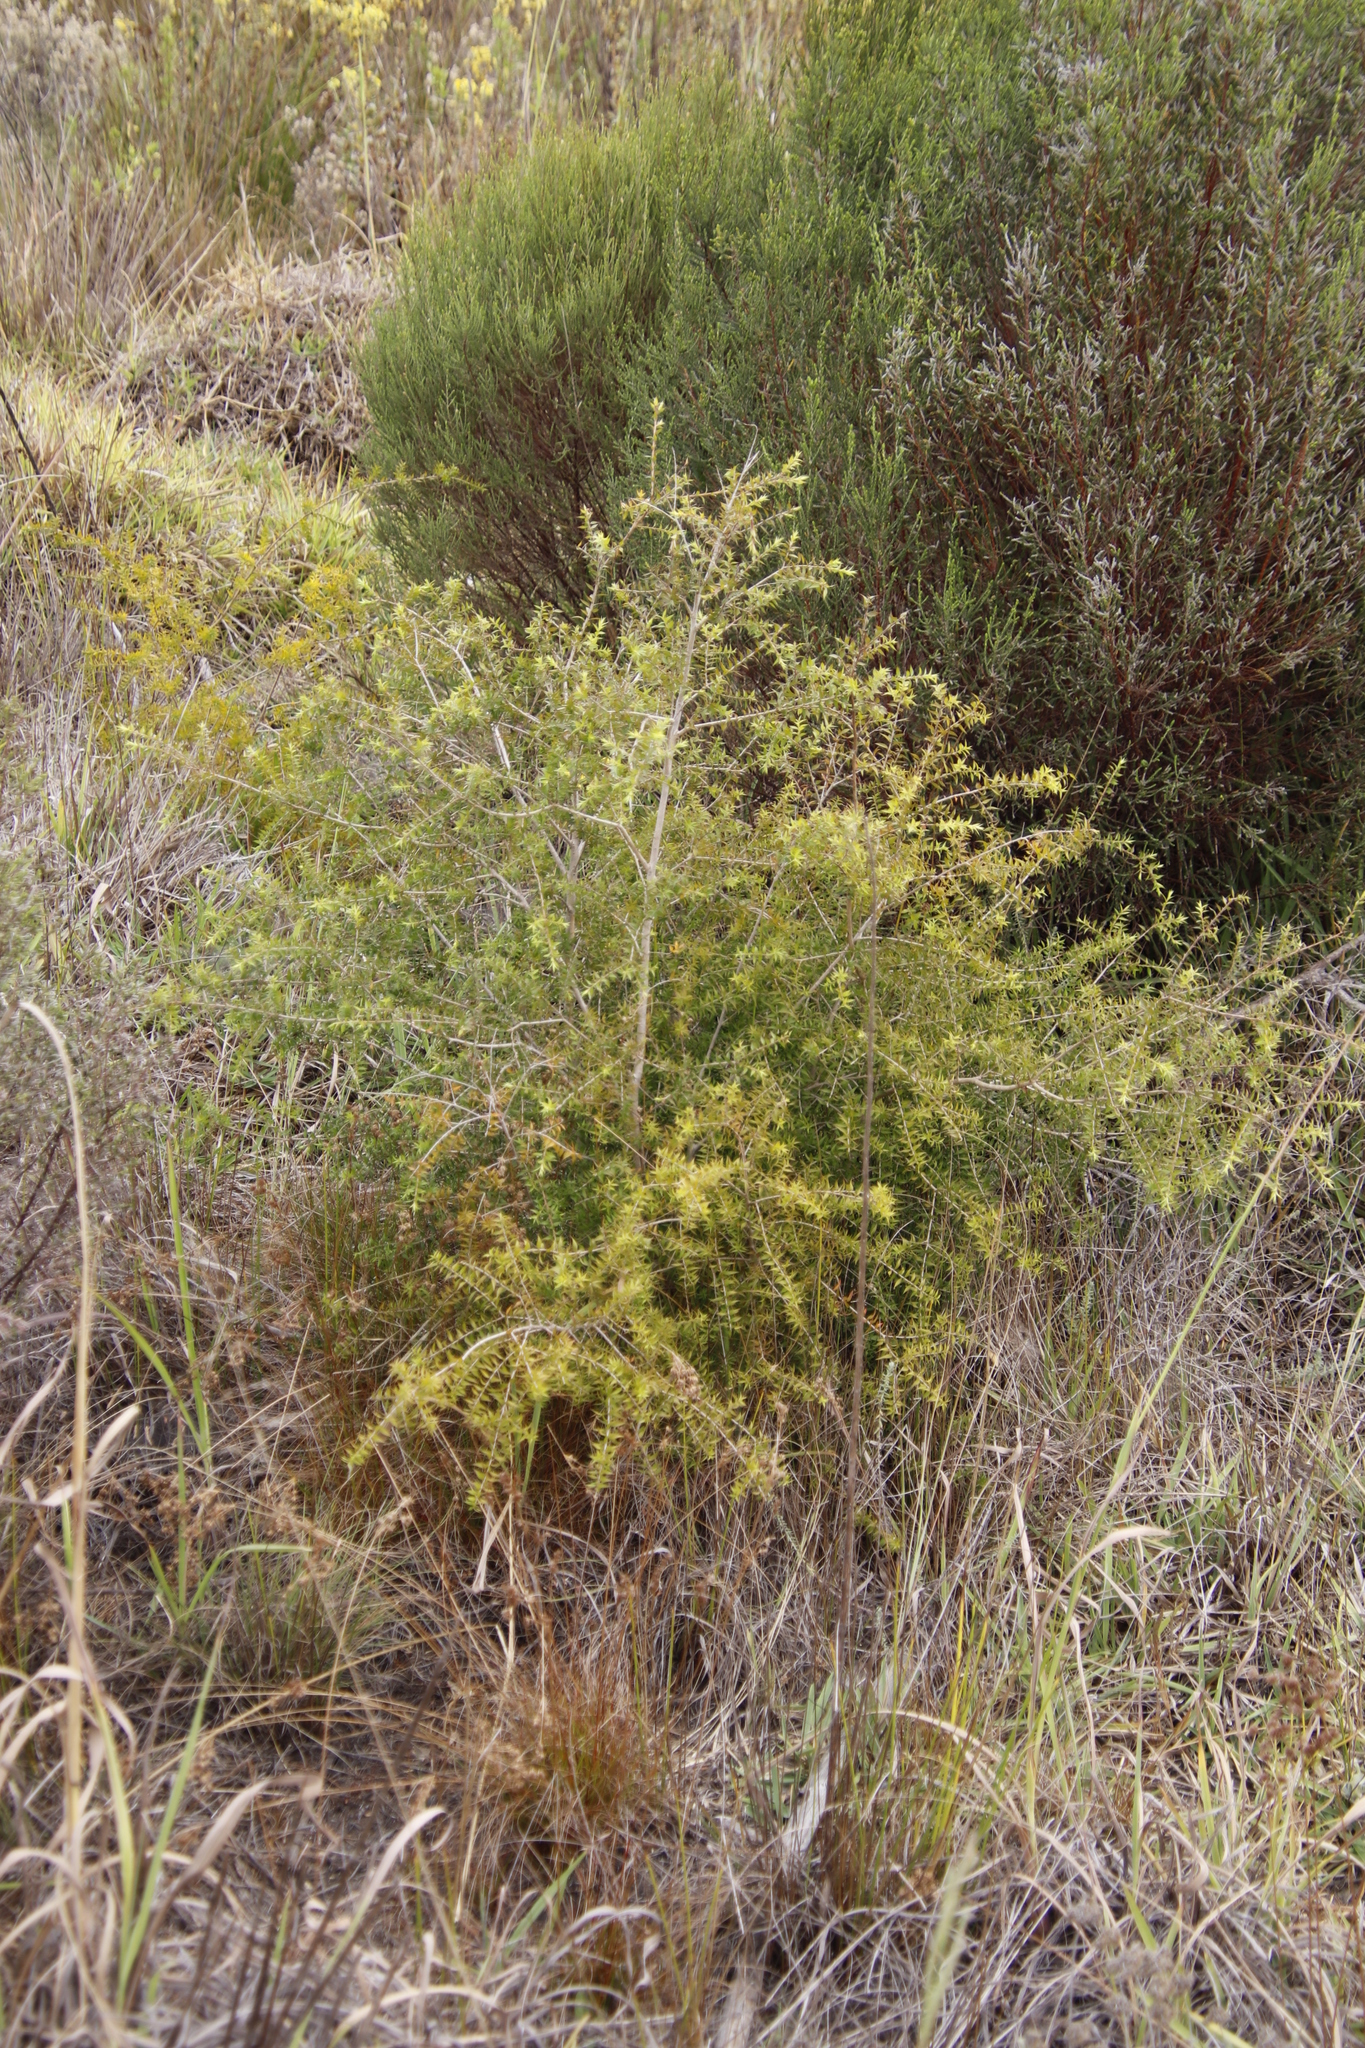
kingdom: Plantae
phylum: Tracheophyta
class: Magnoliopsida
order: Myrtales
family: Myrtaceae
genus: Melaleuca
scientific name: Melaleuca styphelioides
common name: Prickly paperbark
